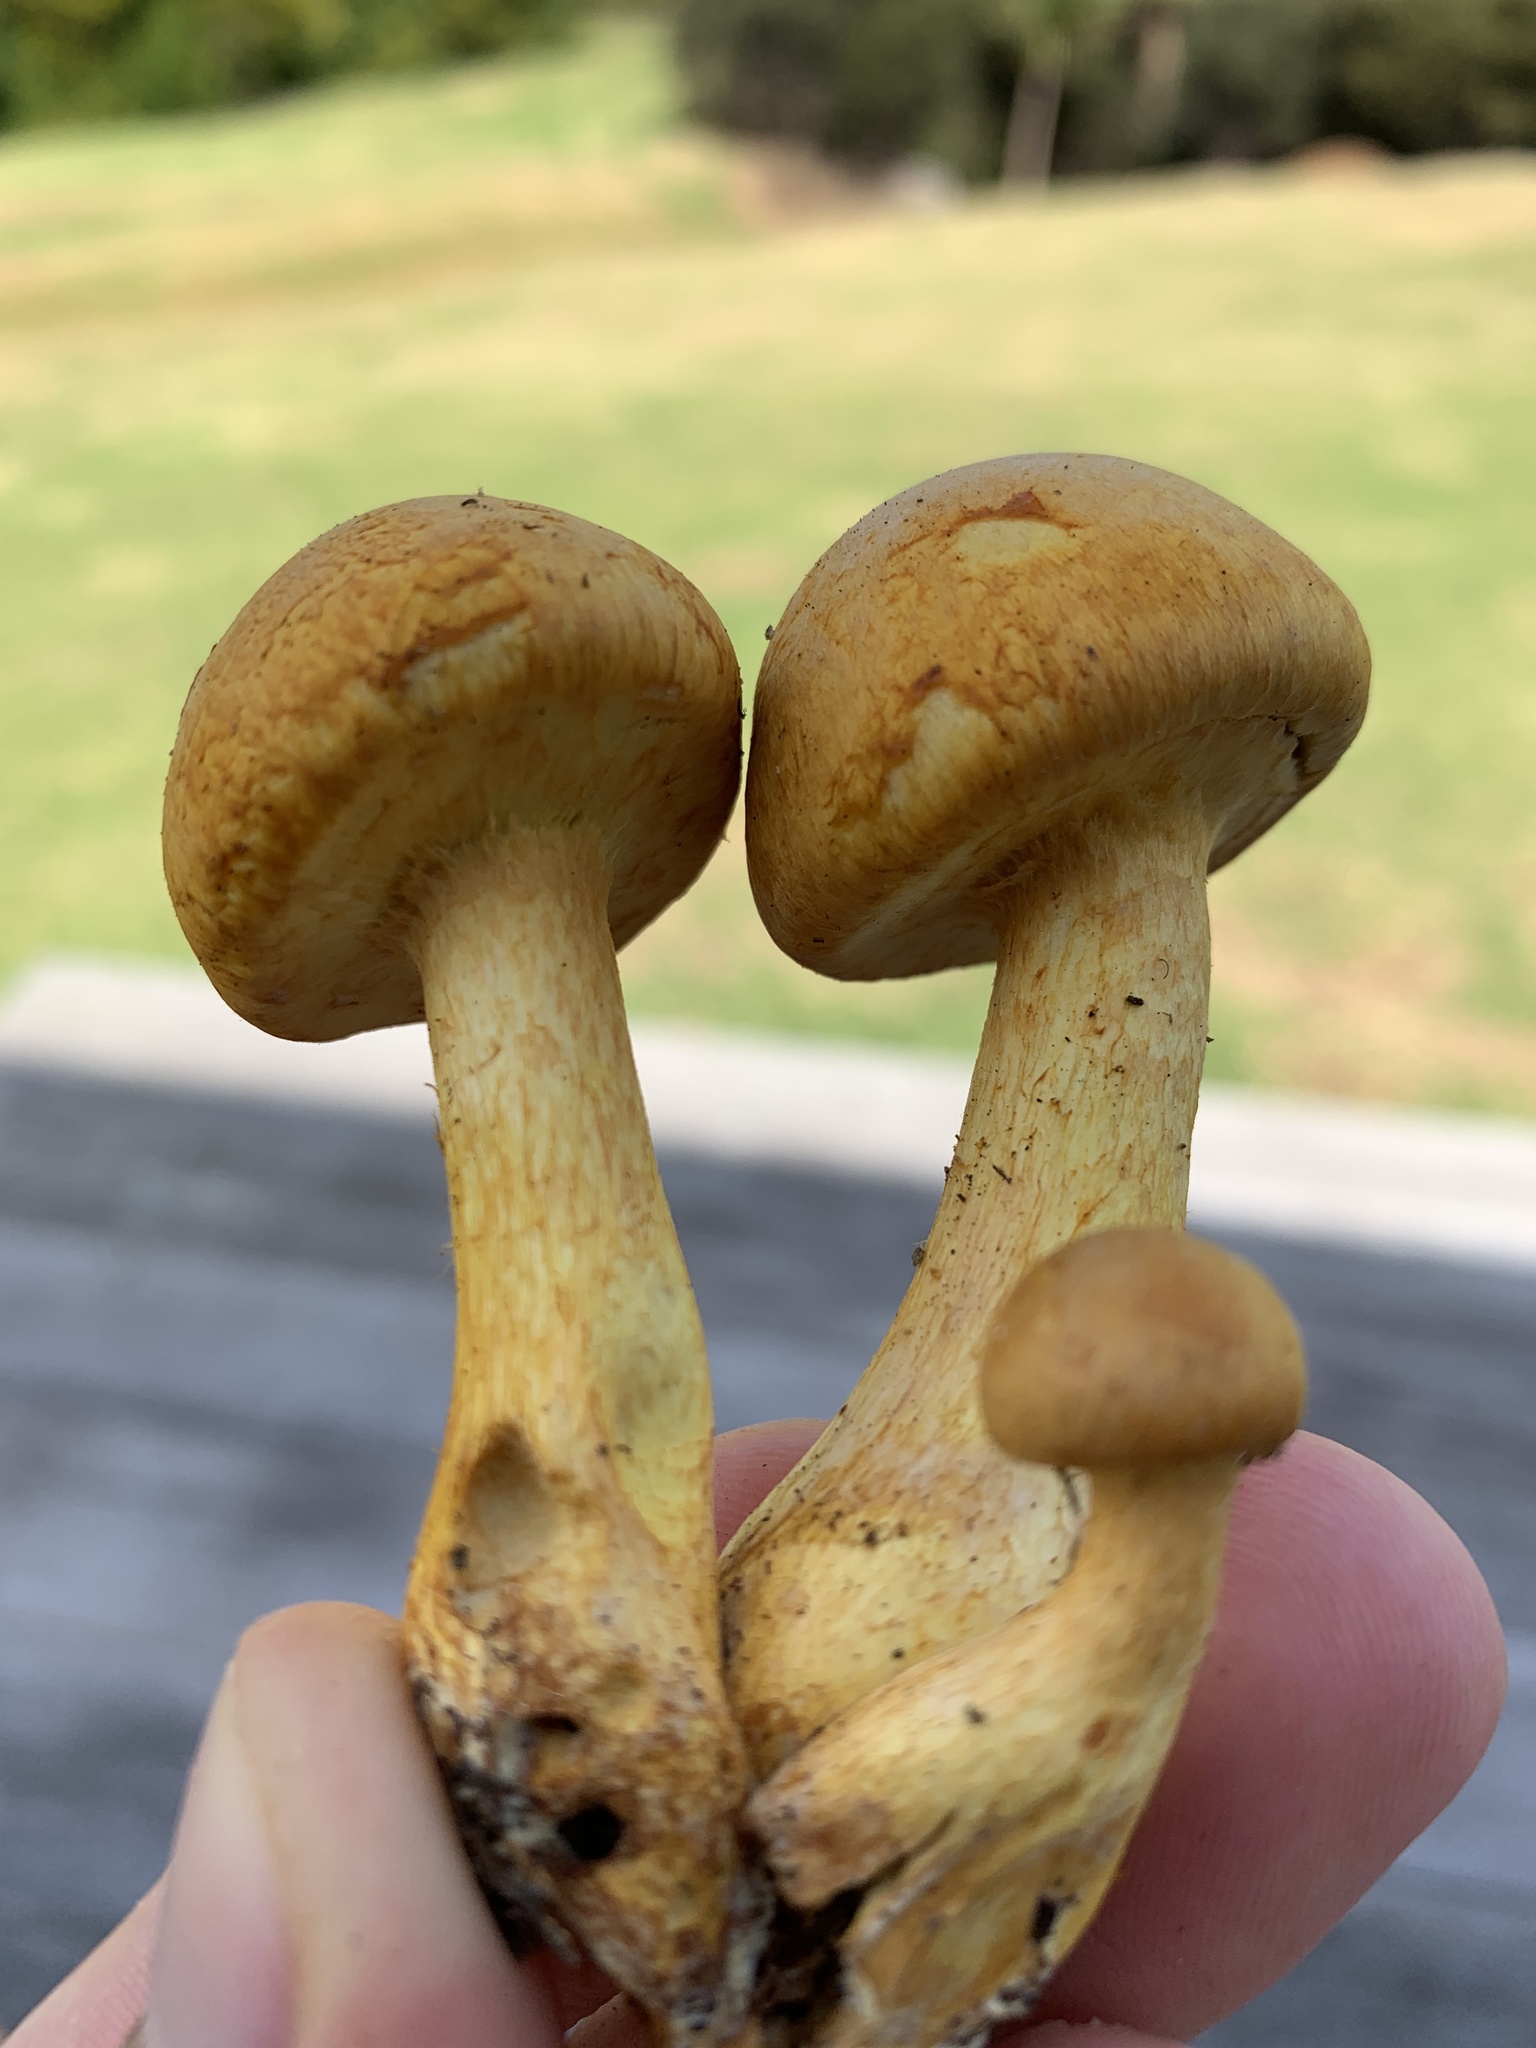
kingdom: Fungi
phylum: Basidiomycota
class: Agaricomycetes
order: Agaricales
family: Hymenogastraceae
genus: Gymnopilus
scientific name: Gymnopilus junonius
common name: Spectacular rustgill
